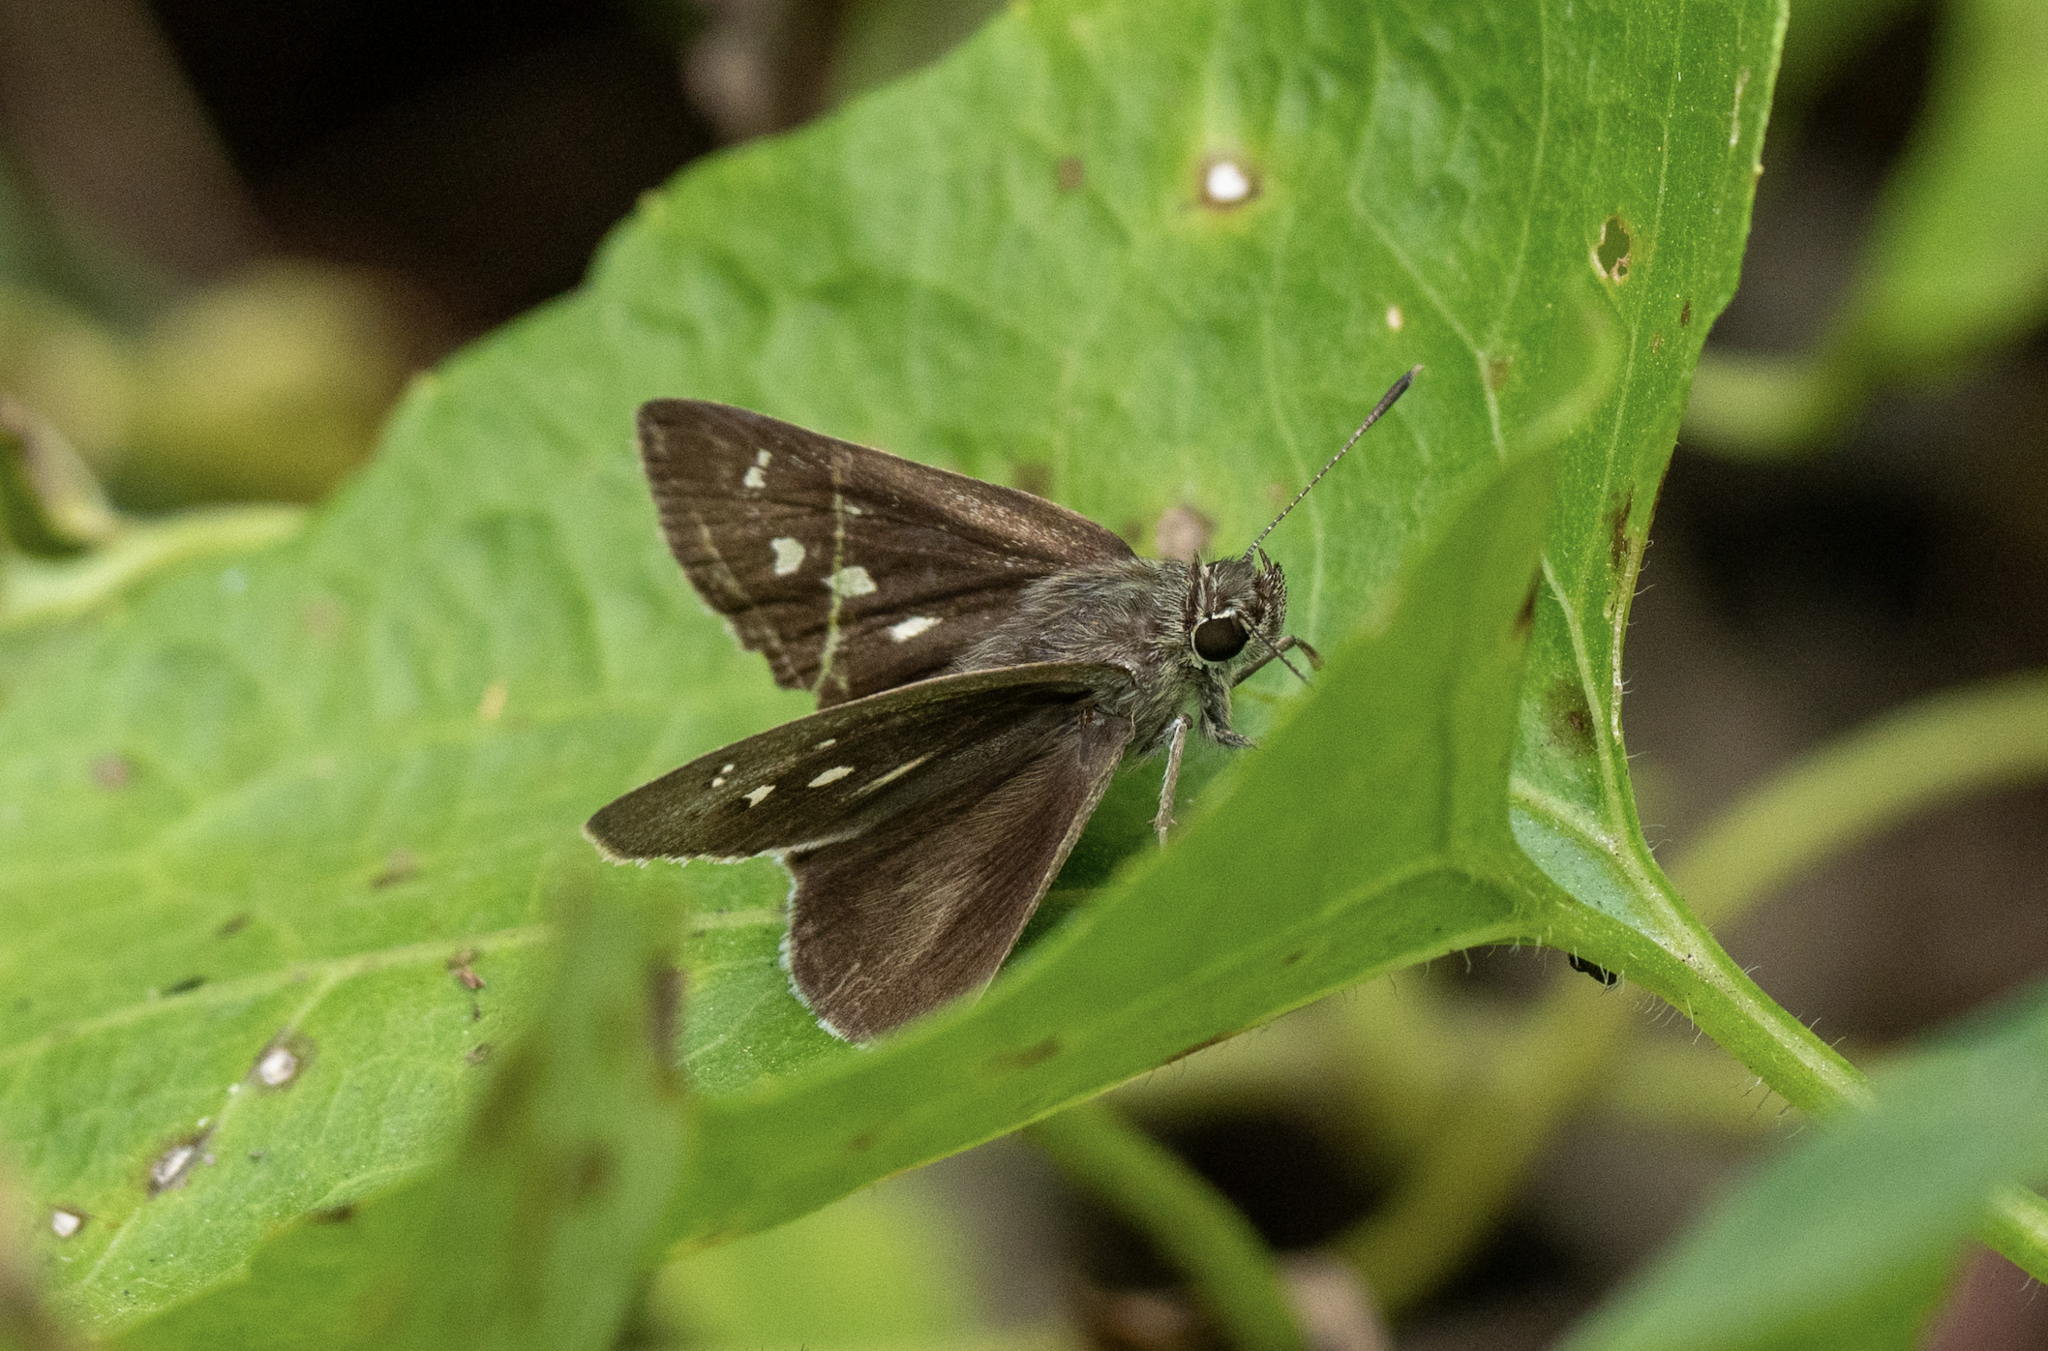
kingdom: Animalia
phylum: Arthropoda
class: Insecta
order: Lepidoptera
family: Hesperiidae
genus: Suastus
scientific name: Suastus gremius
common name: Indian palm bob
